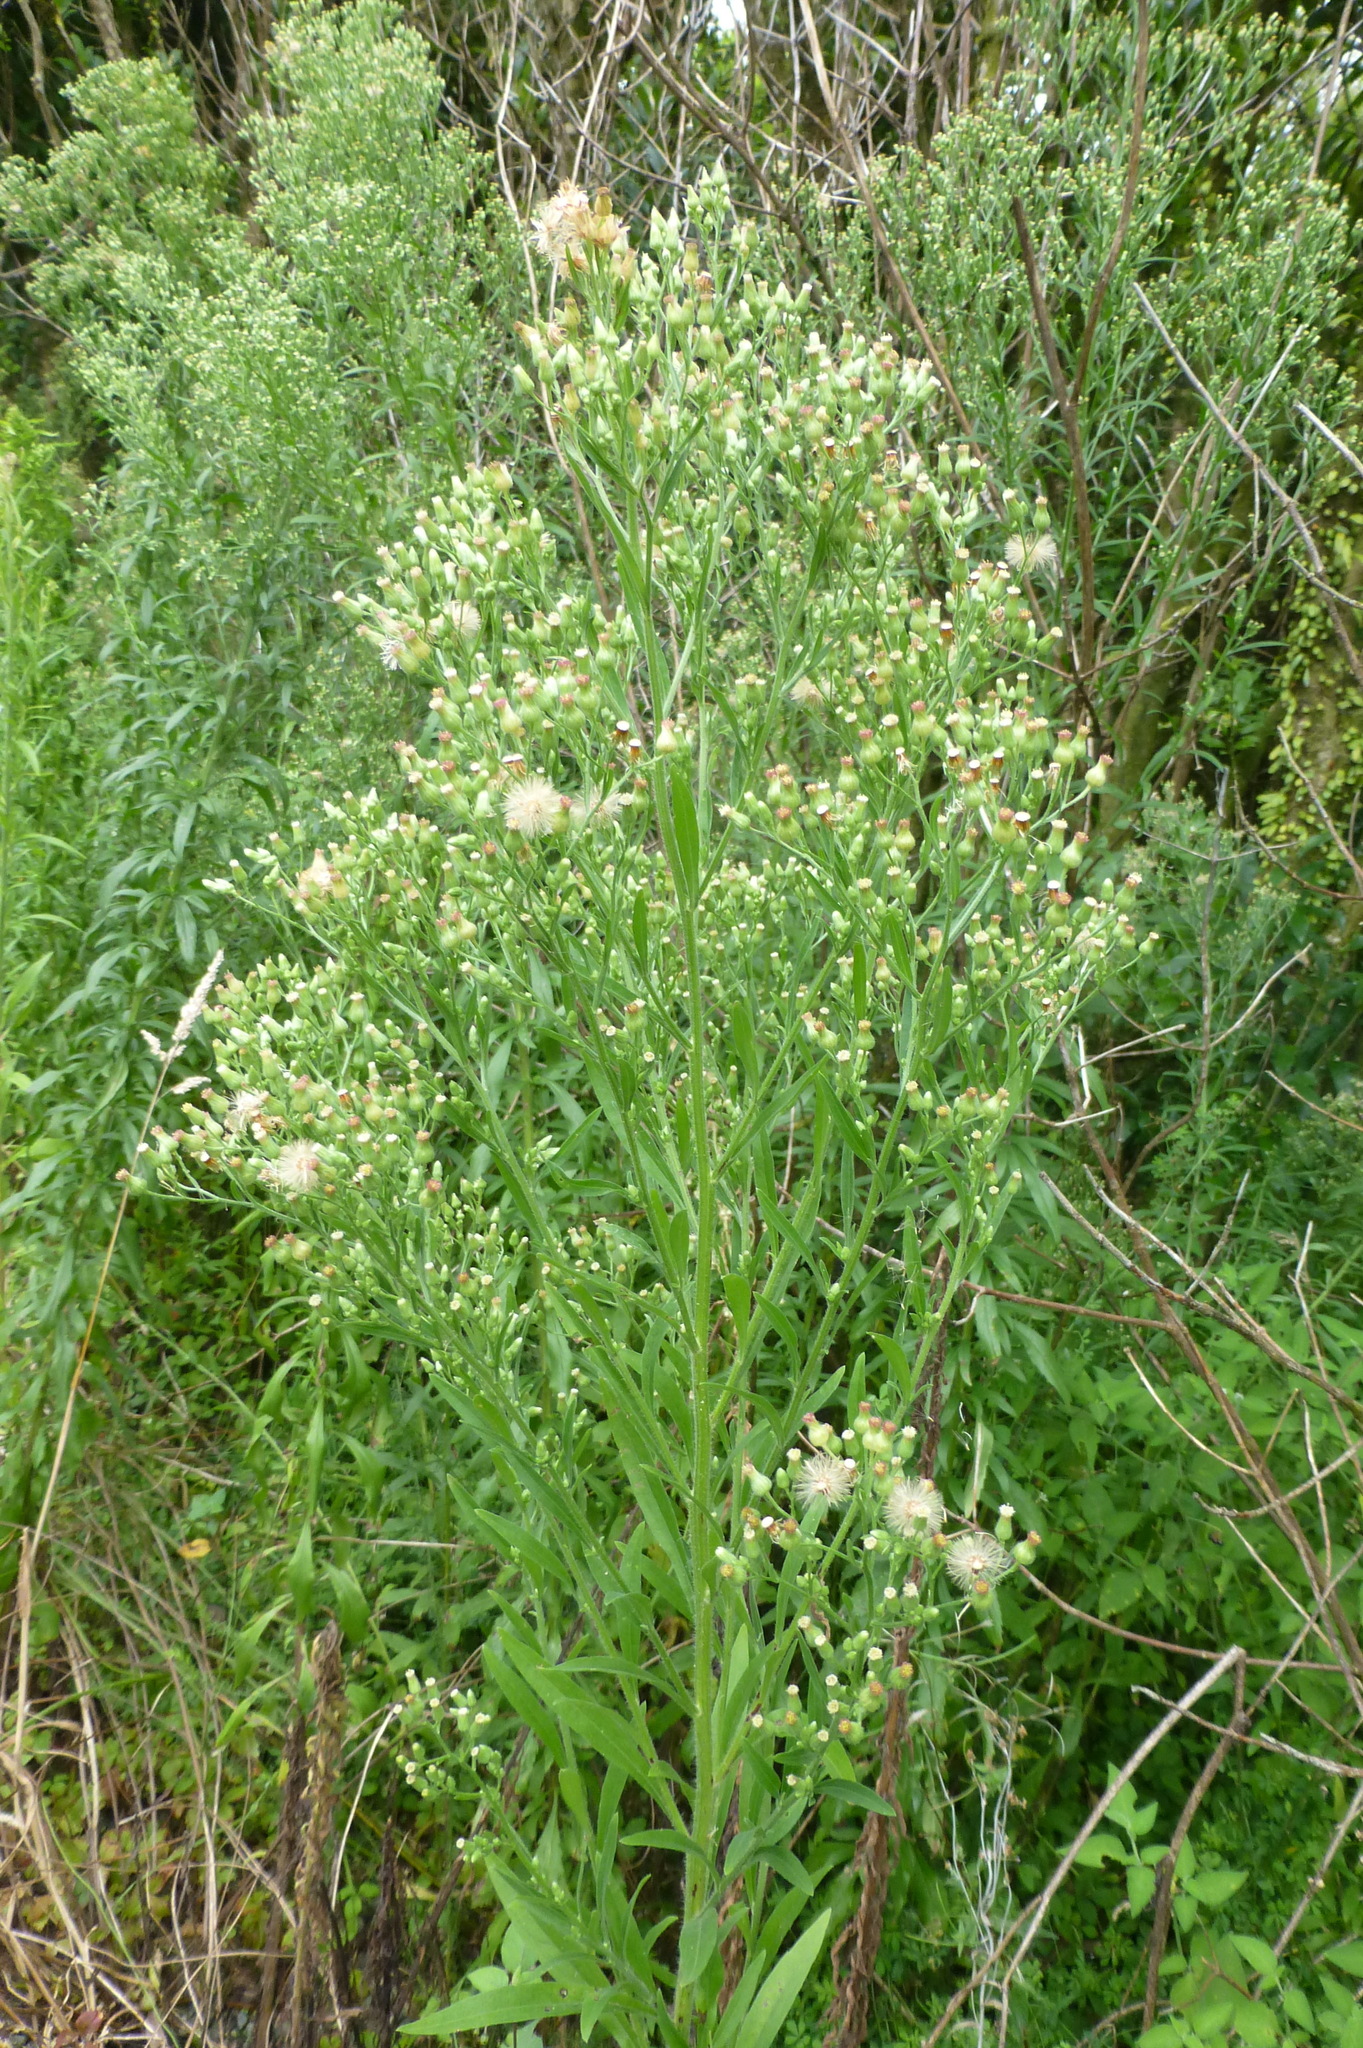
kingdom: Plantae
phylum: Tracheophyta
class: Magnoliopsida
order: Asterales
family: Asteraceae
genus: Erigeron
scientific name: Erigeron sumatrensis
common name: Daisy
